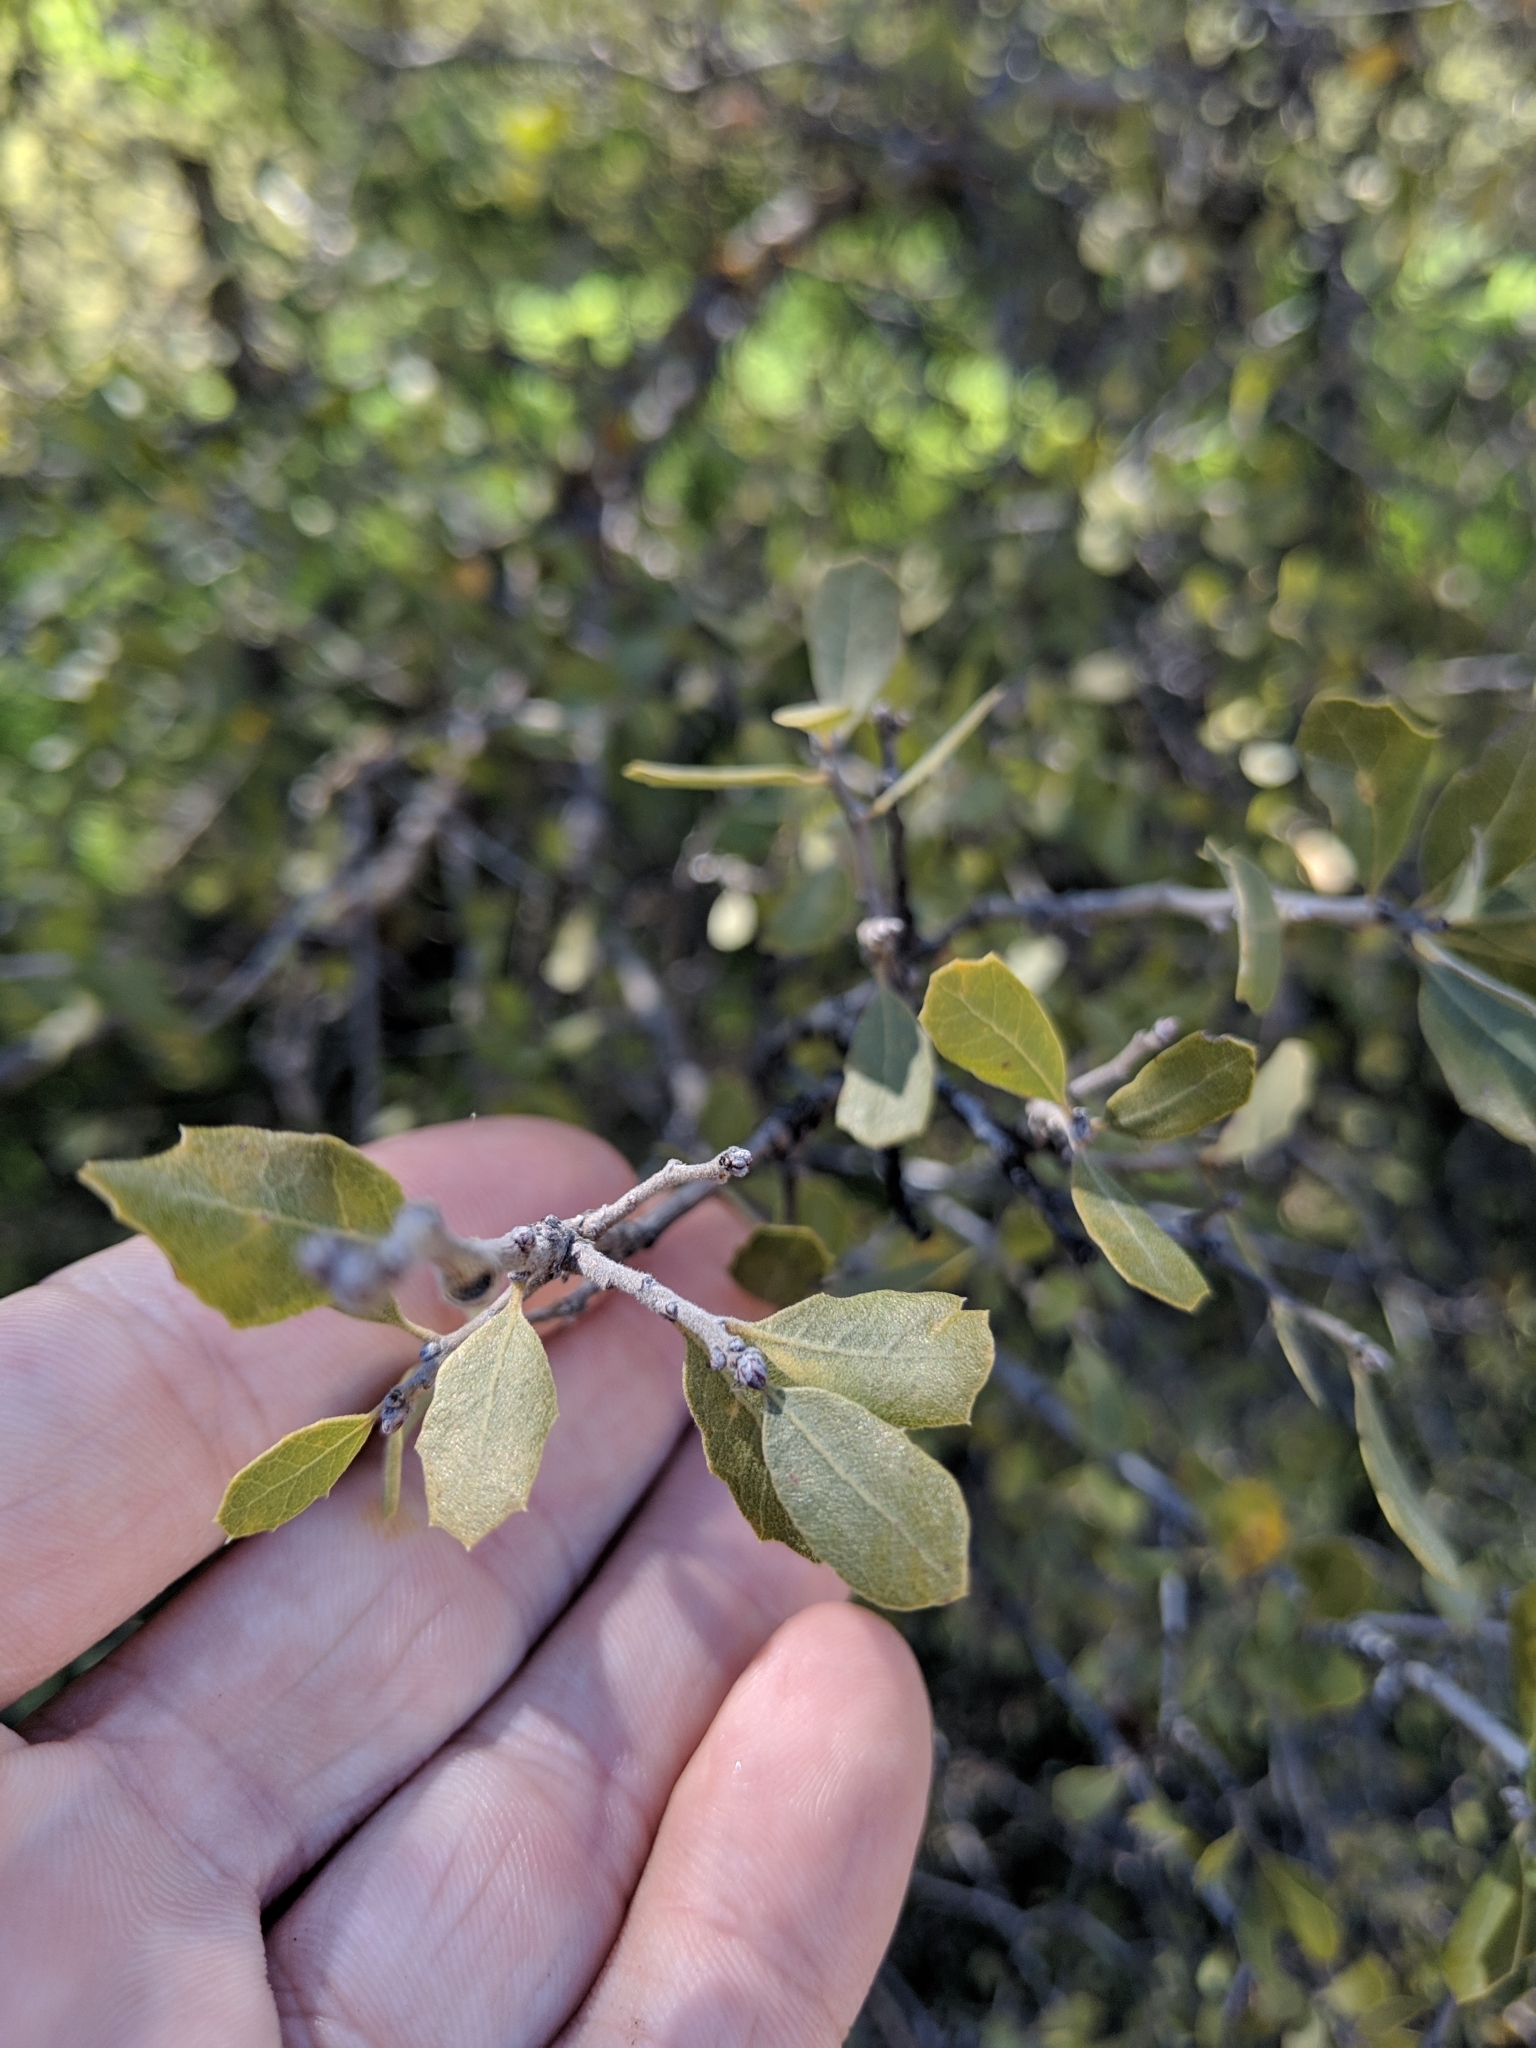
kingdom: Plantae
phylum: Tracheophyta
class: Magnoliopsida
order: Fagales
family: Fagaceae
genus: Quercus
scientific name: Quercus alvordiana
